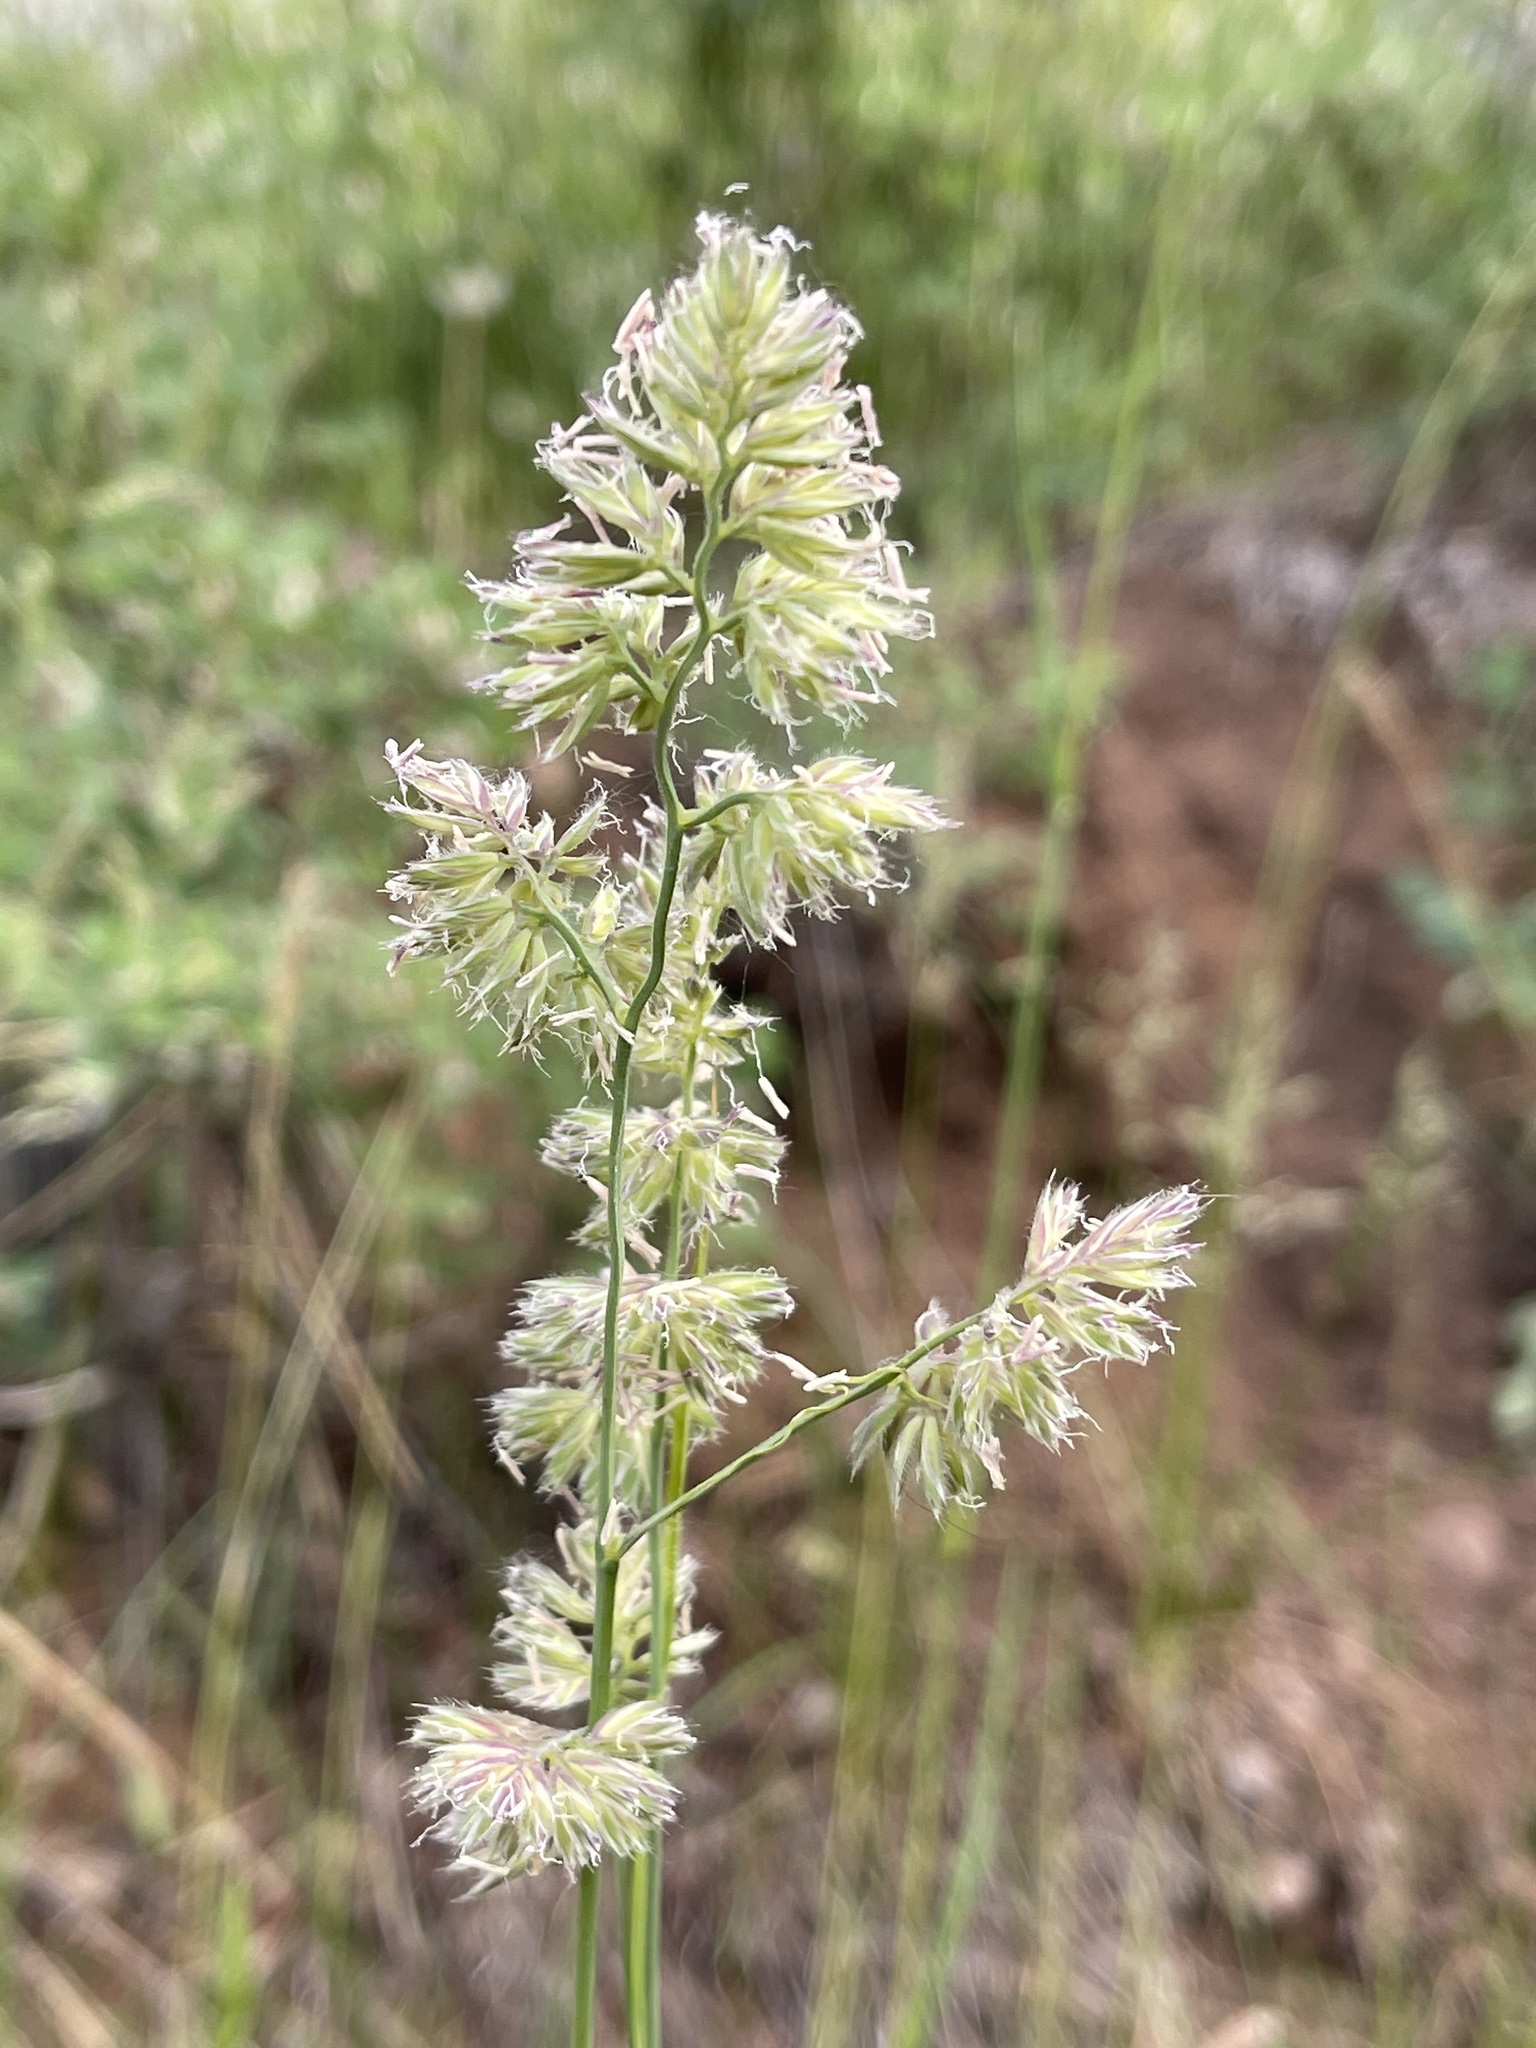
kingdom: Plantae
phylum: Tracheophyta
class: Liliopsida
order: Poales
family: Poaceae
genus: Dactylis
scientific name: Dactylis glomerata
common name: Orchardgrass
